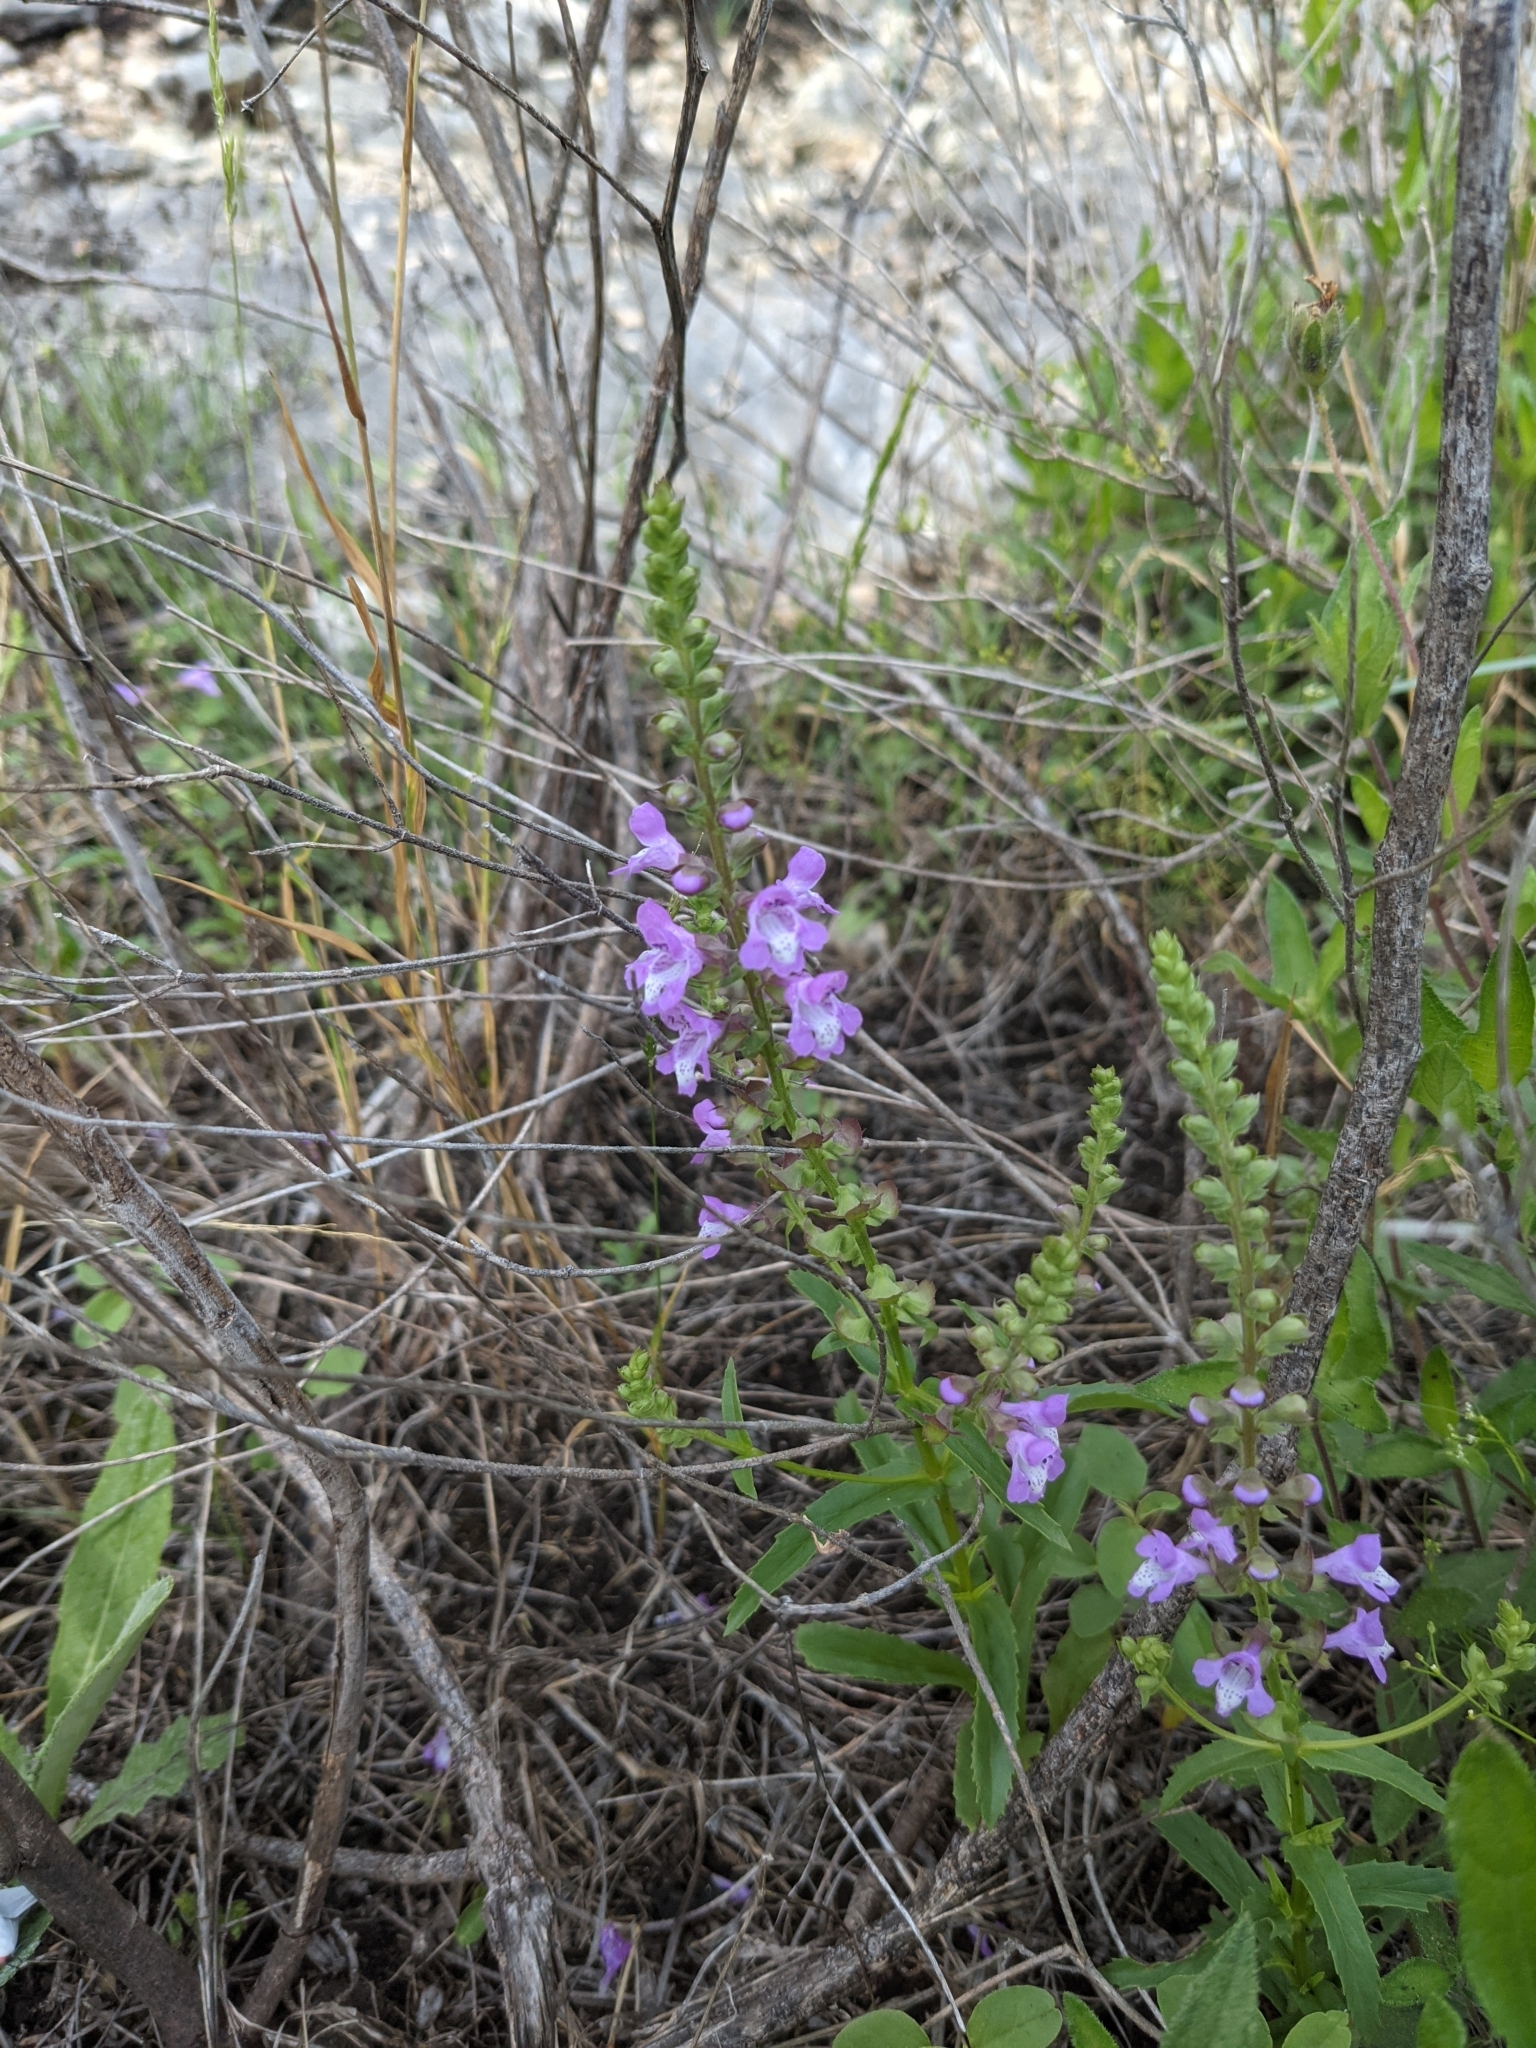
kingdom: Plantae
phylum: Tracheophyta
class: Magnoliopsida
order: Lamiales
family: Lamiaceae
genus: Warnockia
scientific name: Warnockia scutellarioides
